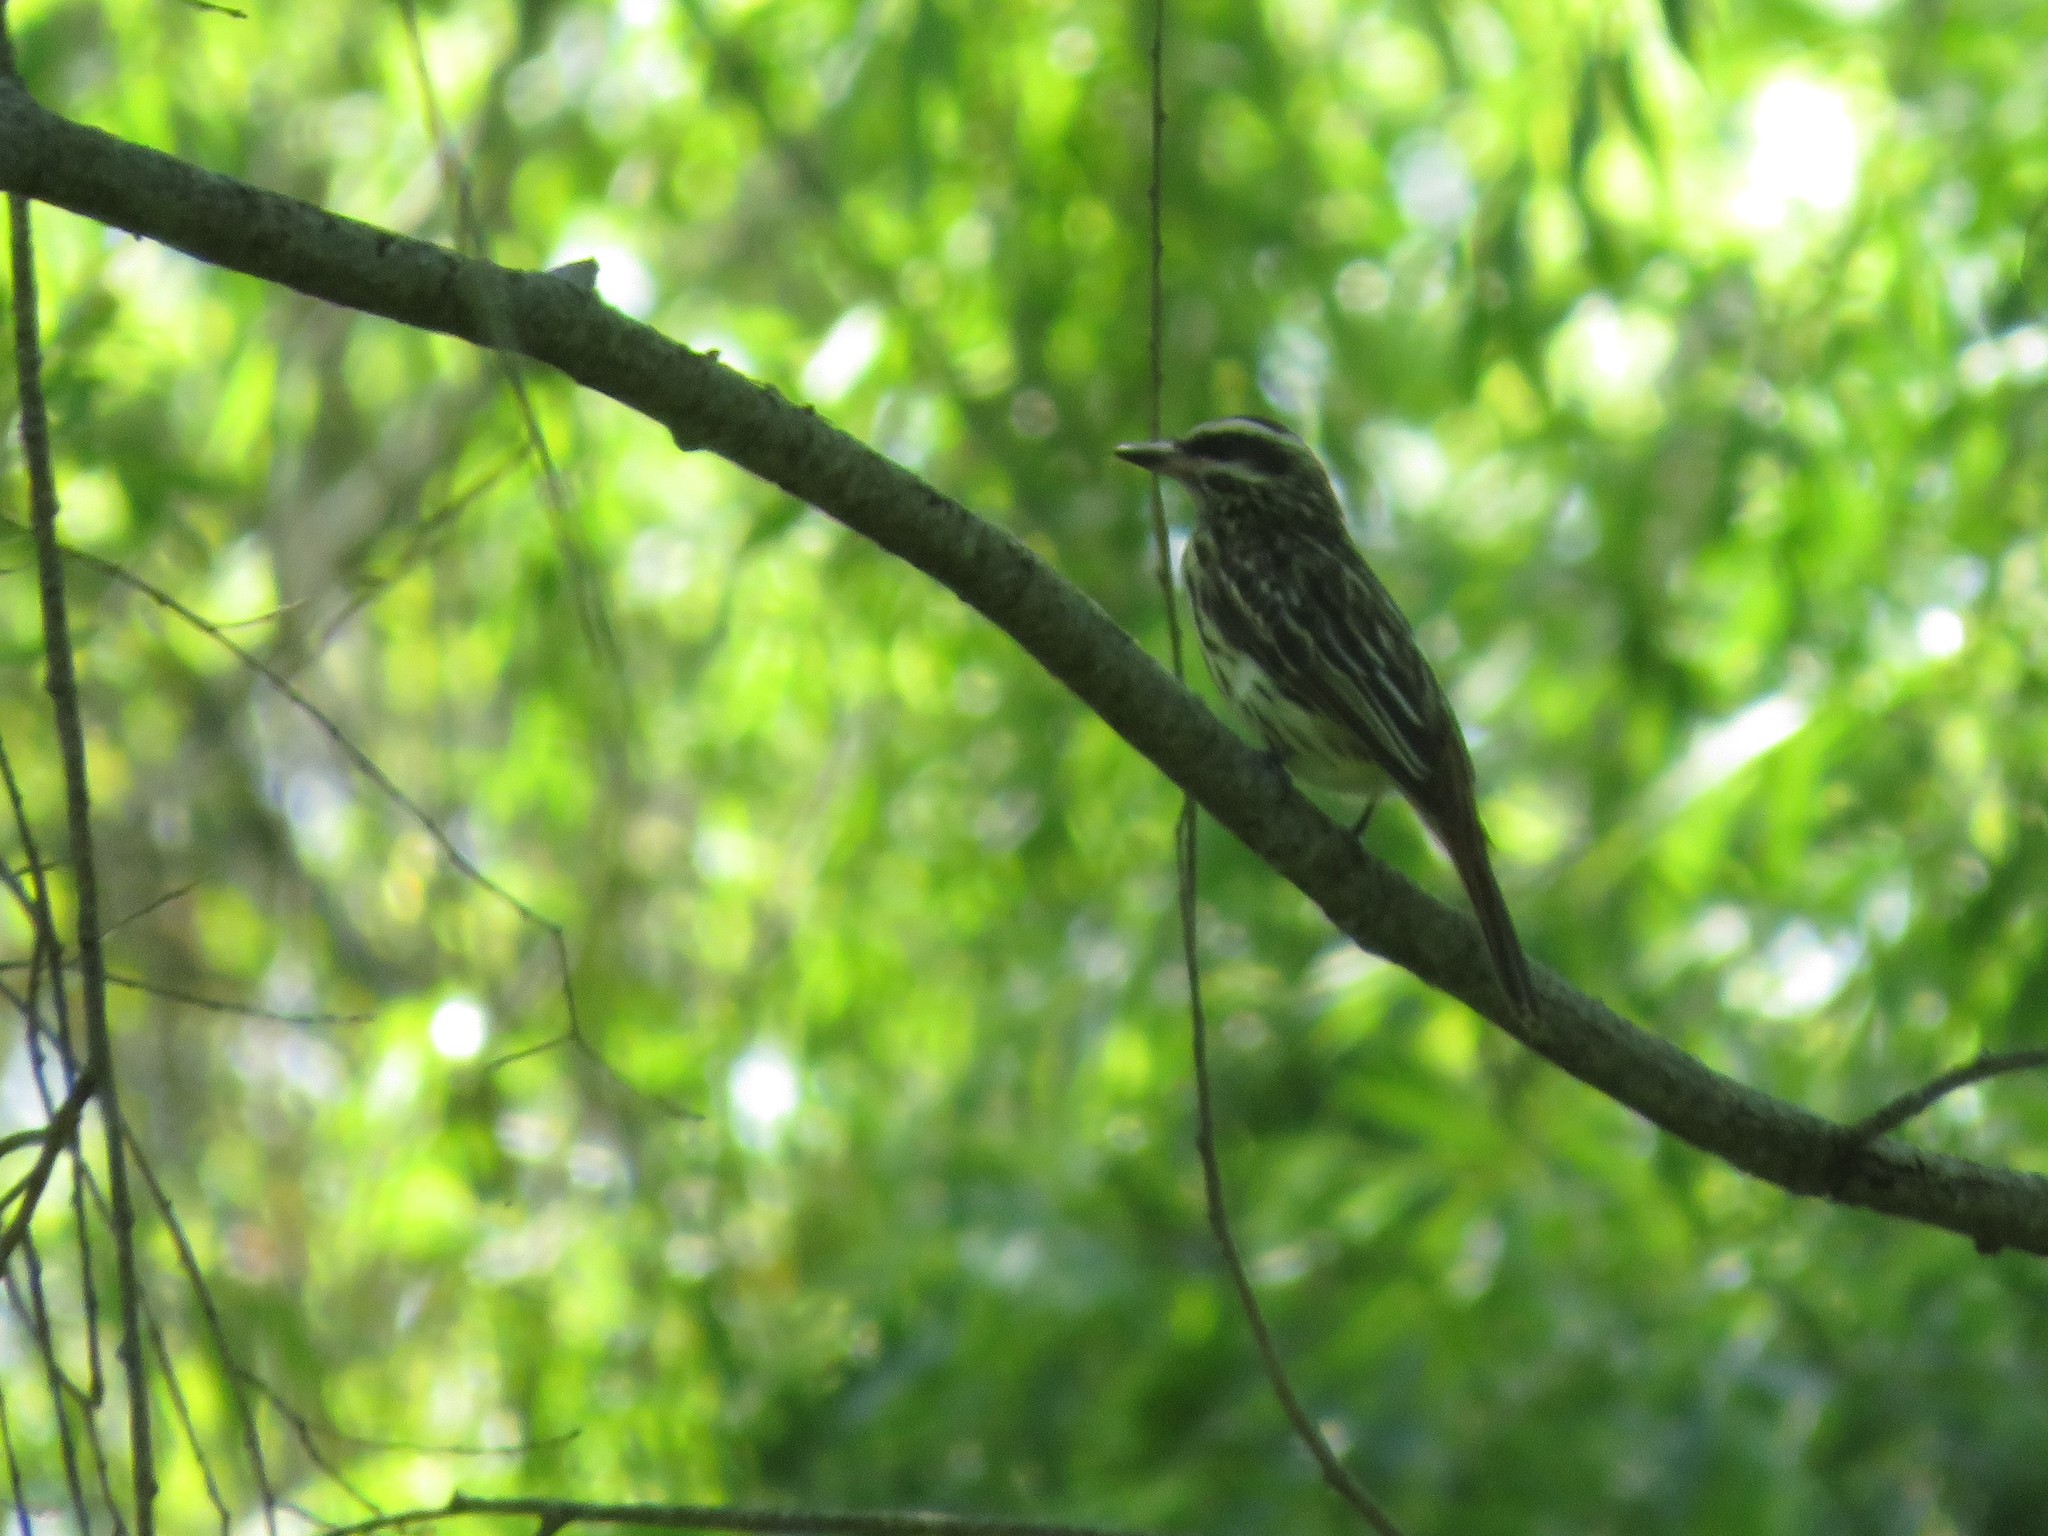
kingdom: Animalia
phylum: Chordata
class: Aves
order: Passeriformes
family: Tyrannidae
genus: Myiodynastes
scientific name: Myiodynastes maculatus
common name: Streaked flycatcher
